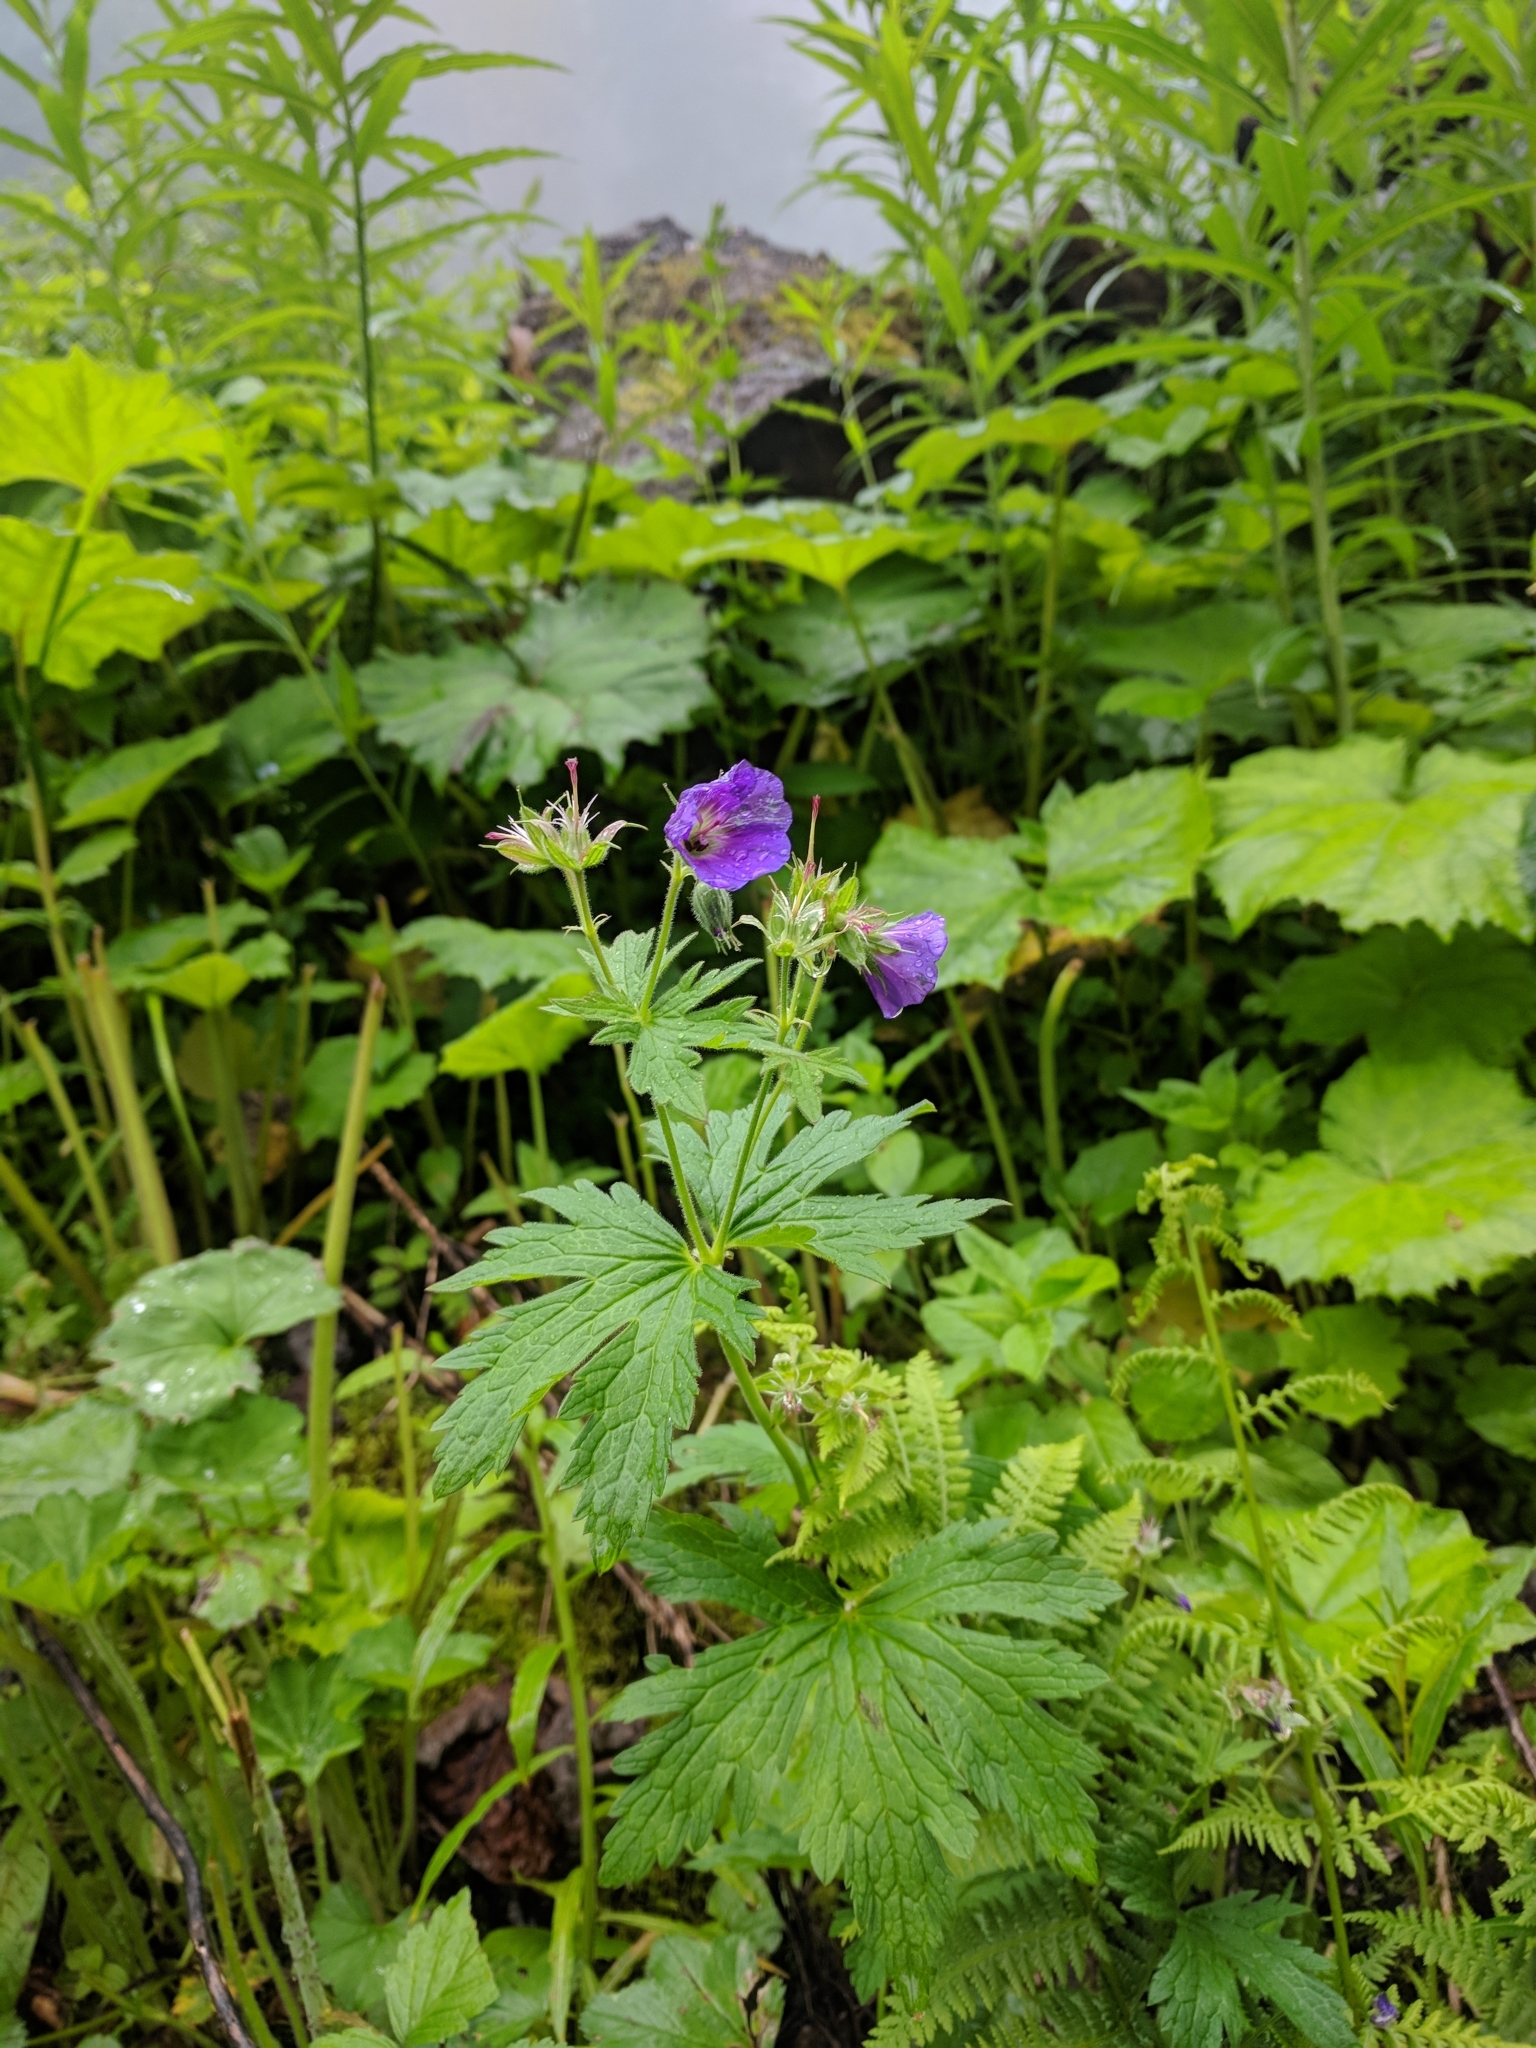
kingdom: Plantae
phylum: Tracheophyta
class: Magnoliopsida
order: Geraniales
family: Geraniaceae
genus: Geranium
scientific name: Geranium sylvaticum
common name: Wood crane's-bill
